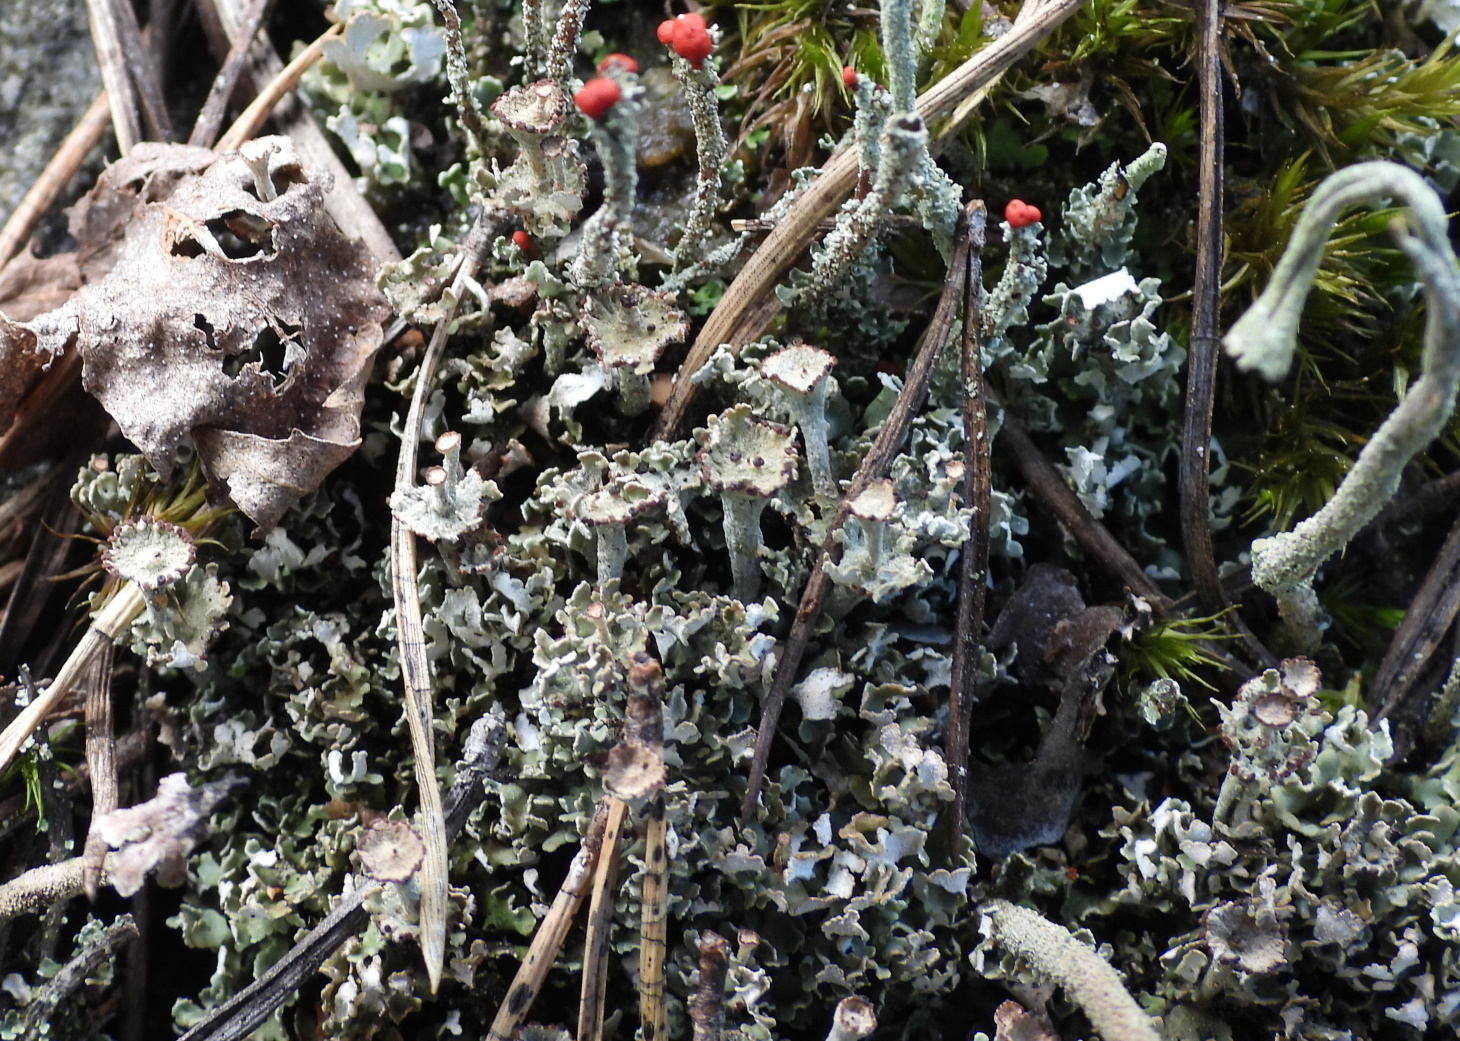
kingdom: Fungi
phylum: Ascomycota
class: Lecanoromycetes
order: Lecanorales
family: Cladoniaceae
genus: Cladonia
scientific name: Cladonia cervicornis
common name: Browned pixie-cup lichen
